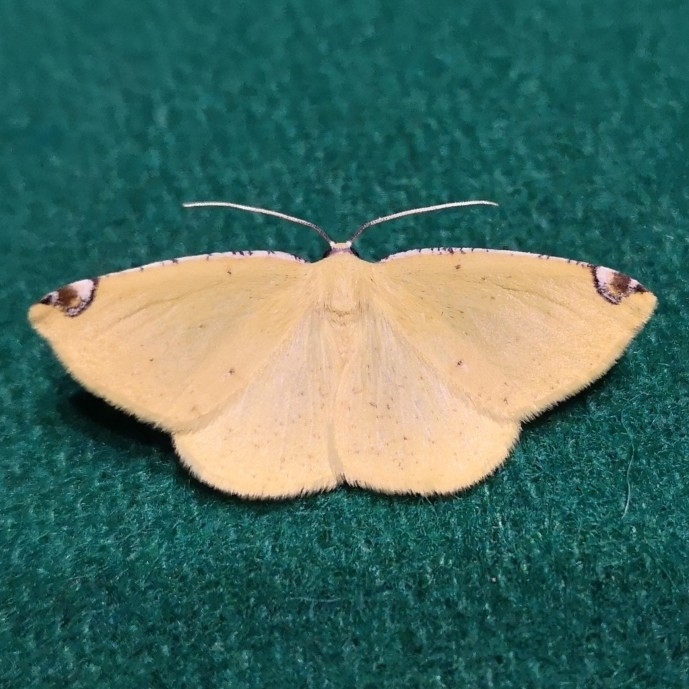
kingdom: Animalia
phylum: Arthropoda
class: Insecta
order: Lepidoptera
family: Geometridae
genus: Perusia
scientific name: Perusia aurantiacaria
